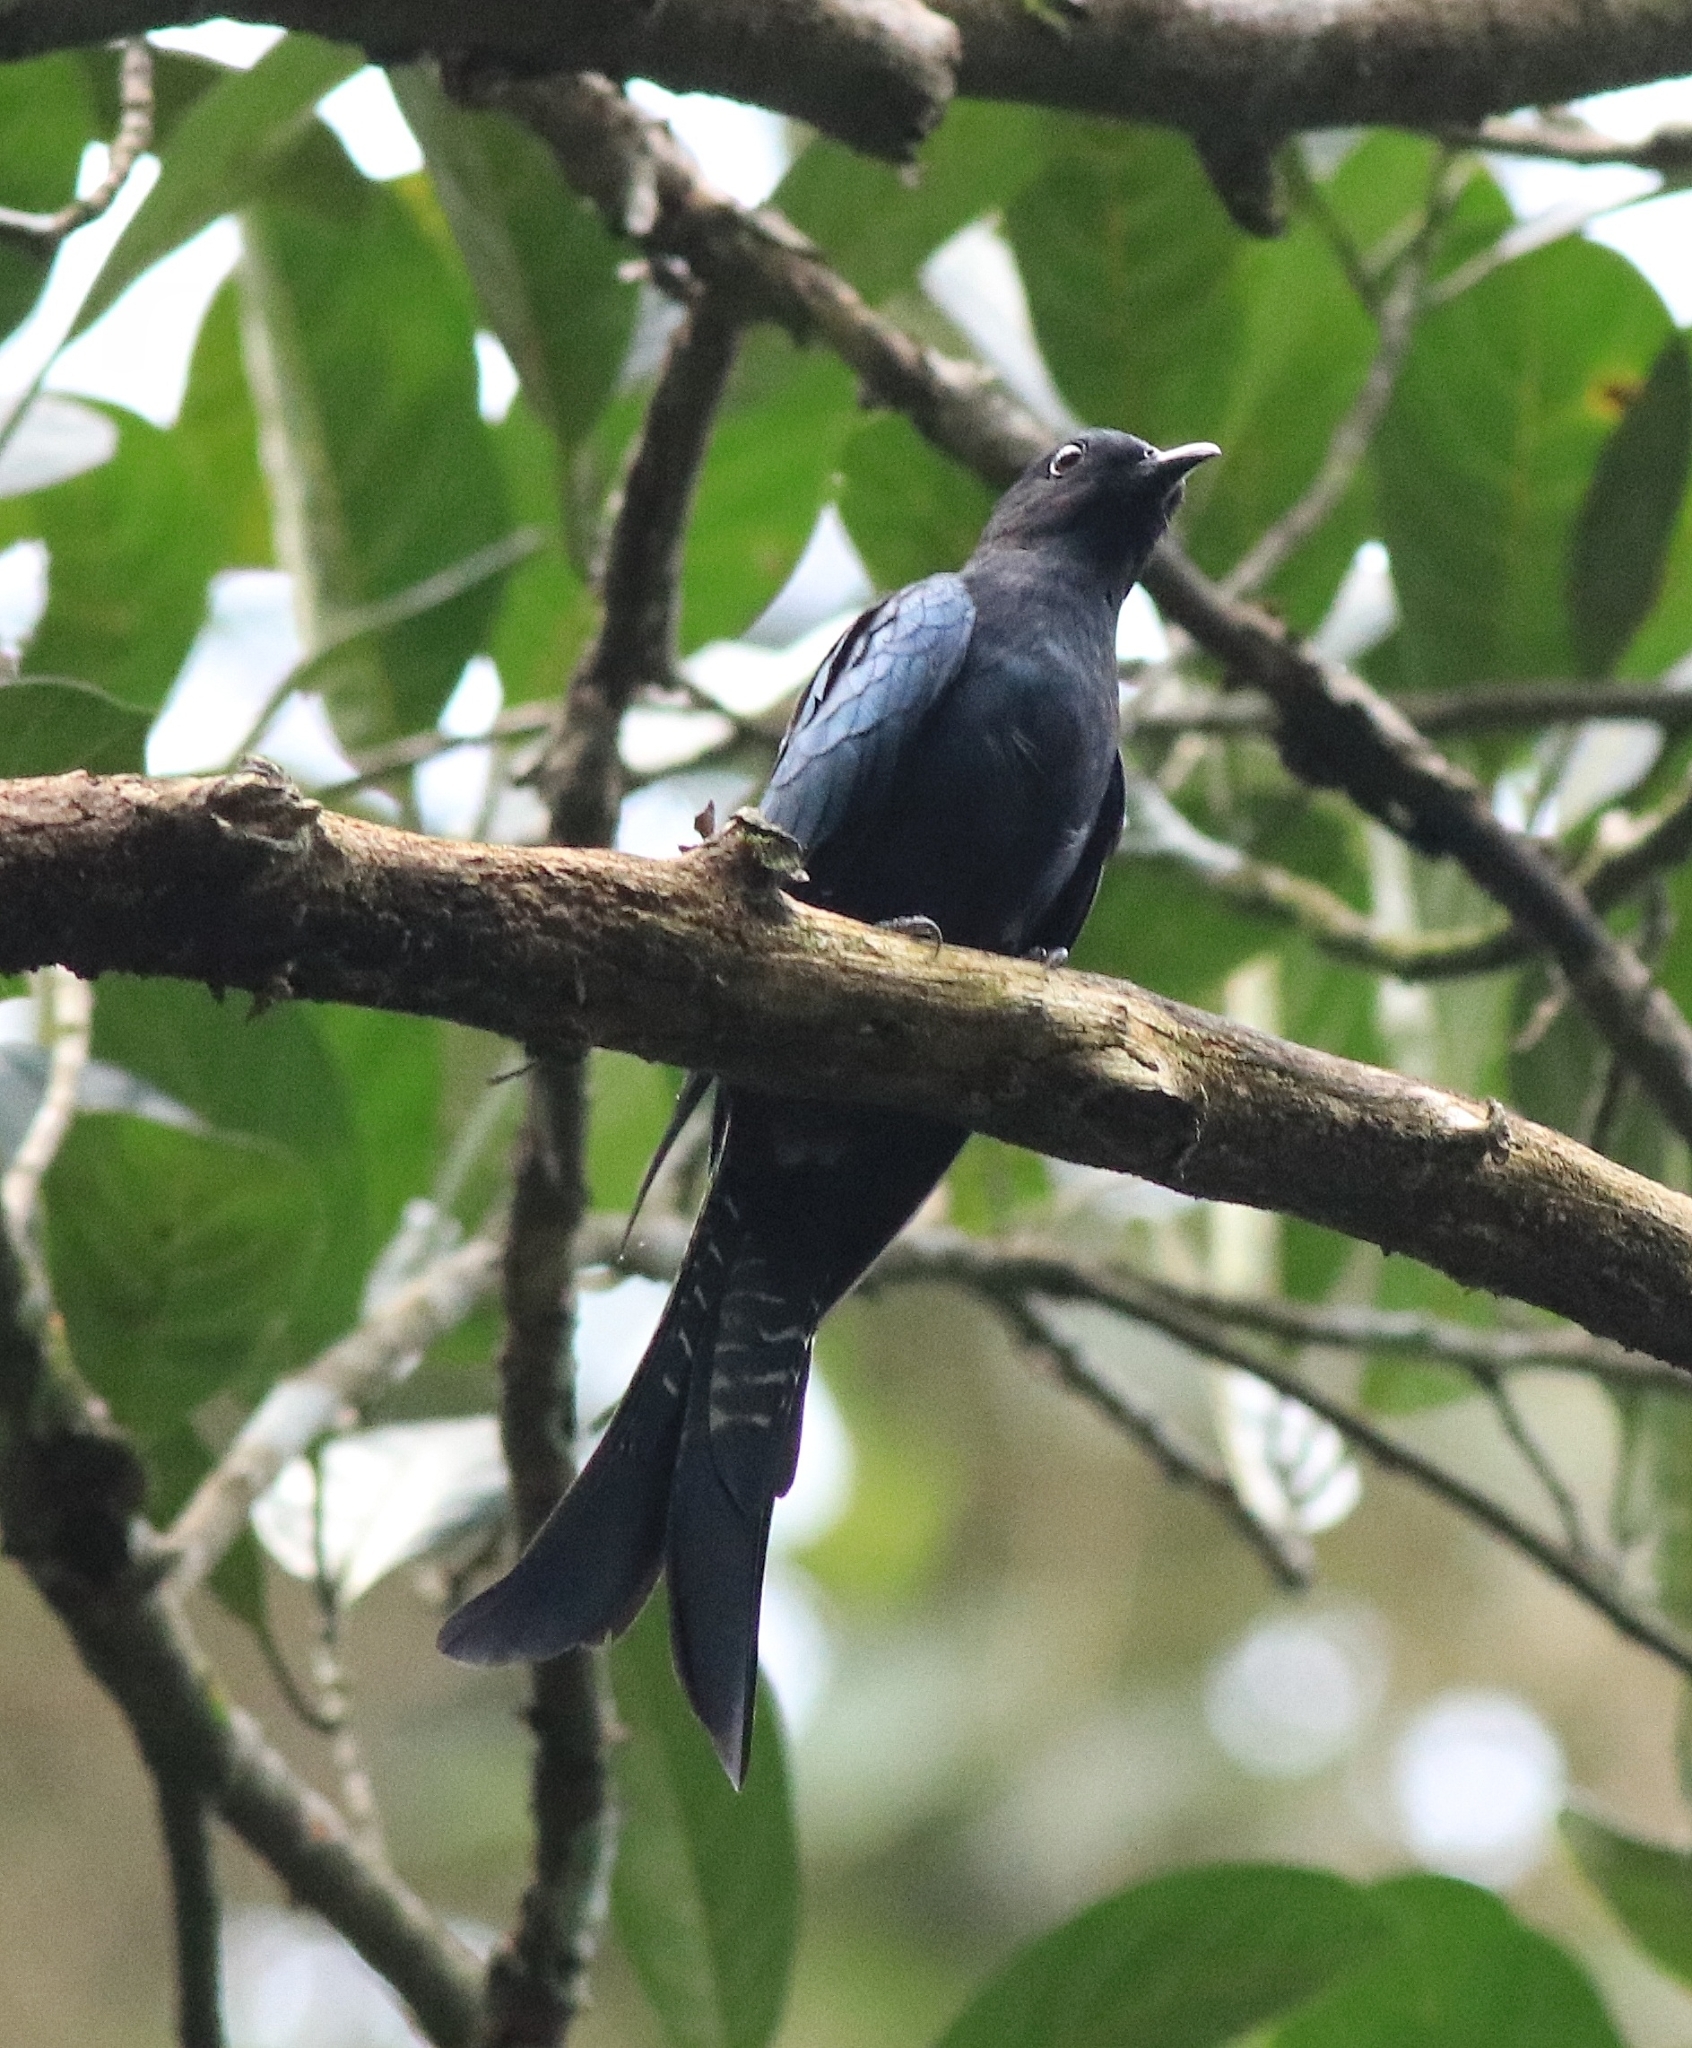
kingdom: Animalia
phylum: Chordata
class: Aves
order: Cuculiformes
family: Cuculidae
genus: Surniculus
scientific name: Surniculus lugubris
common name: Square-tailed drongo-cuckoo
